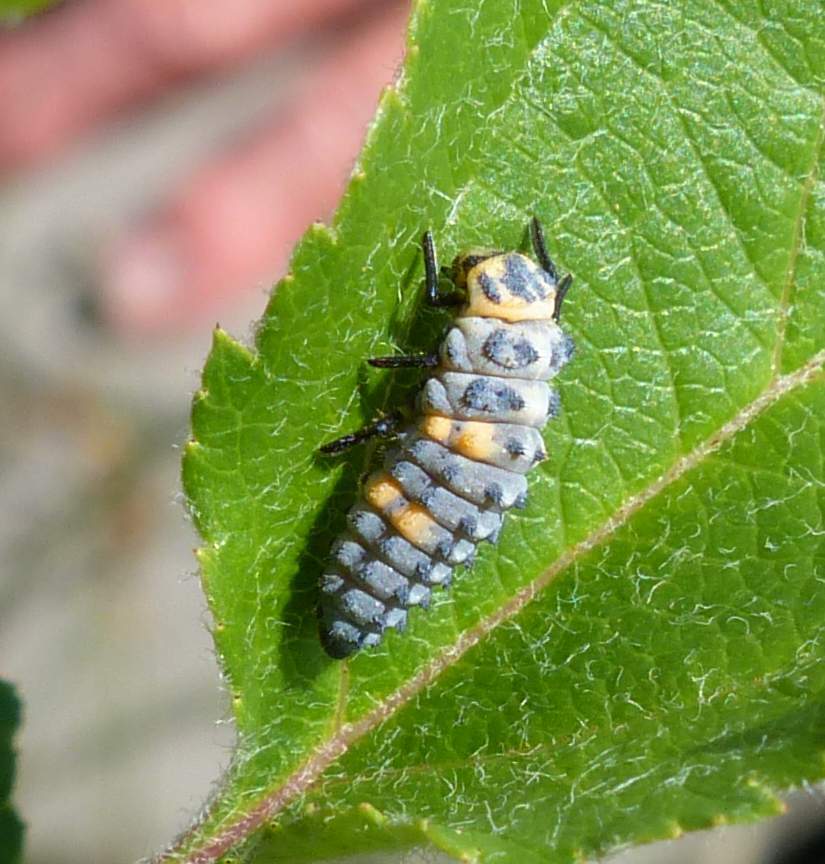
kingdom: Animalia
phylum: Arthropoda
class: Insecta
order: Coleoptera
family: Coccinellidae
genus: Coccinella
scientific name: Coccinella septempunctata
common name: Sevenspotted lady beetle
